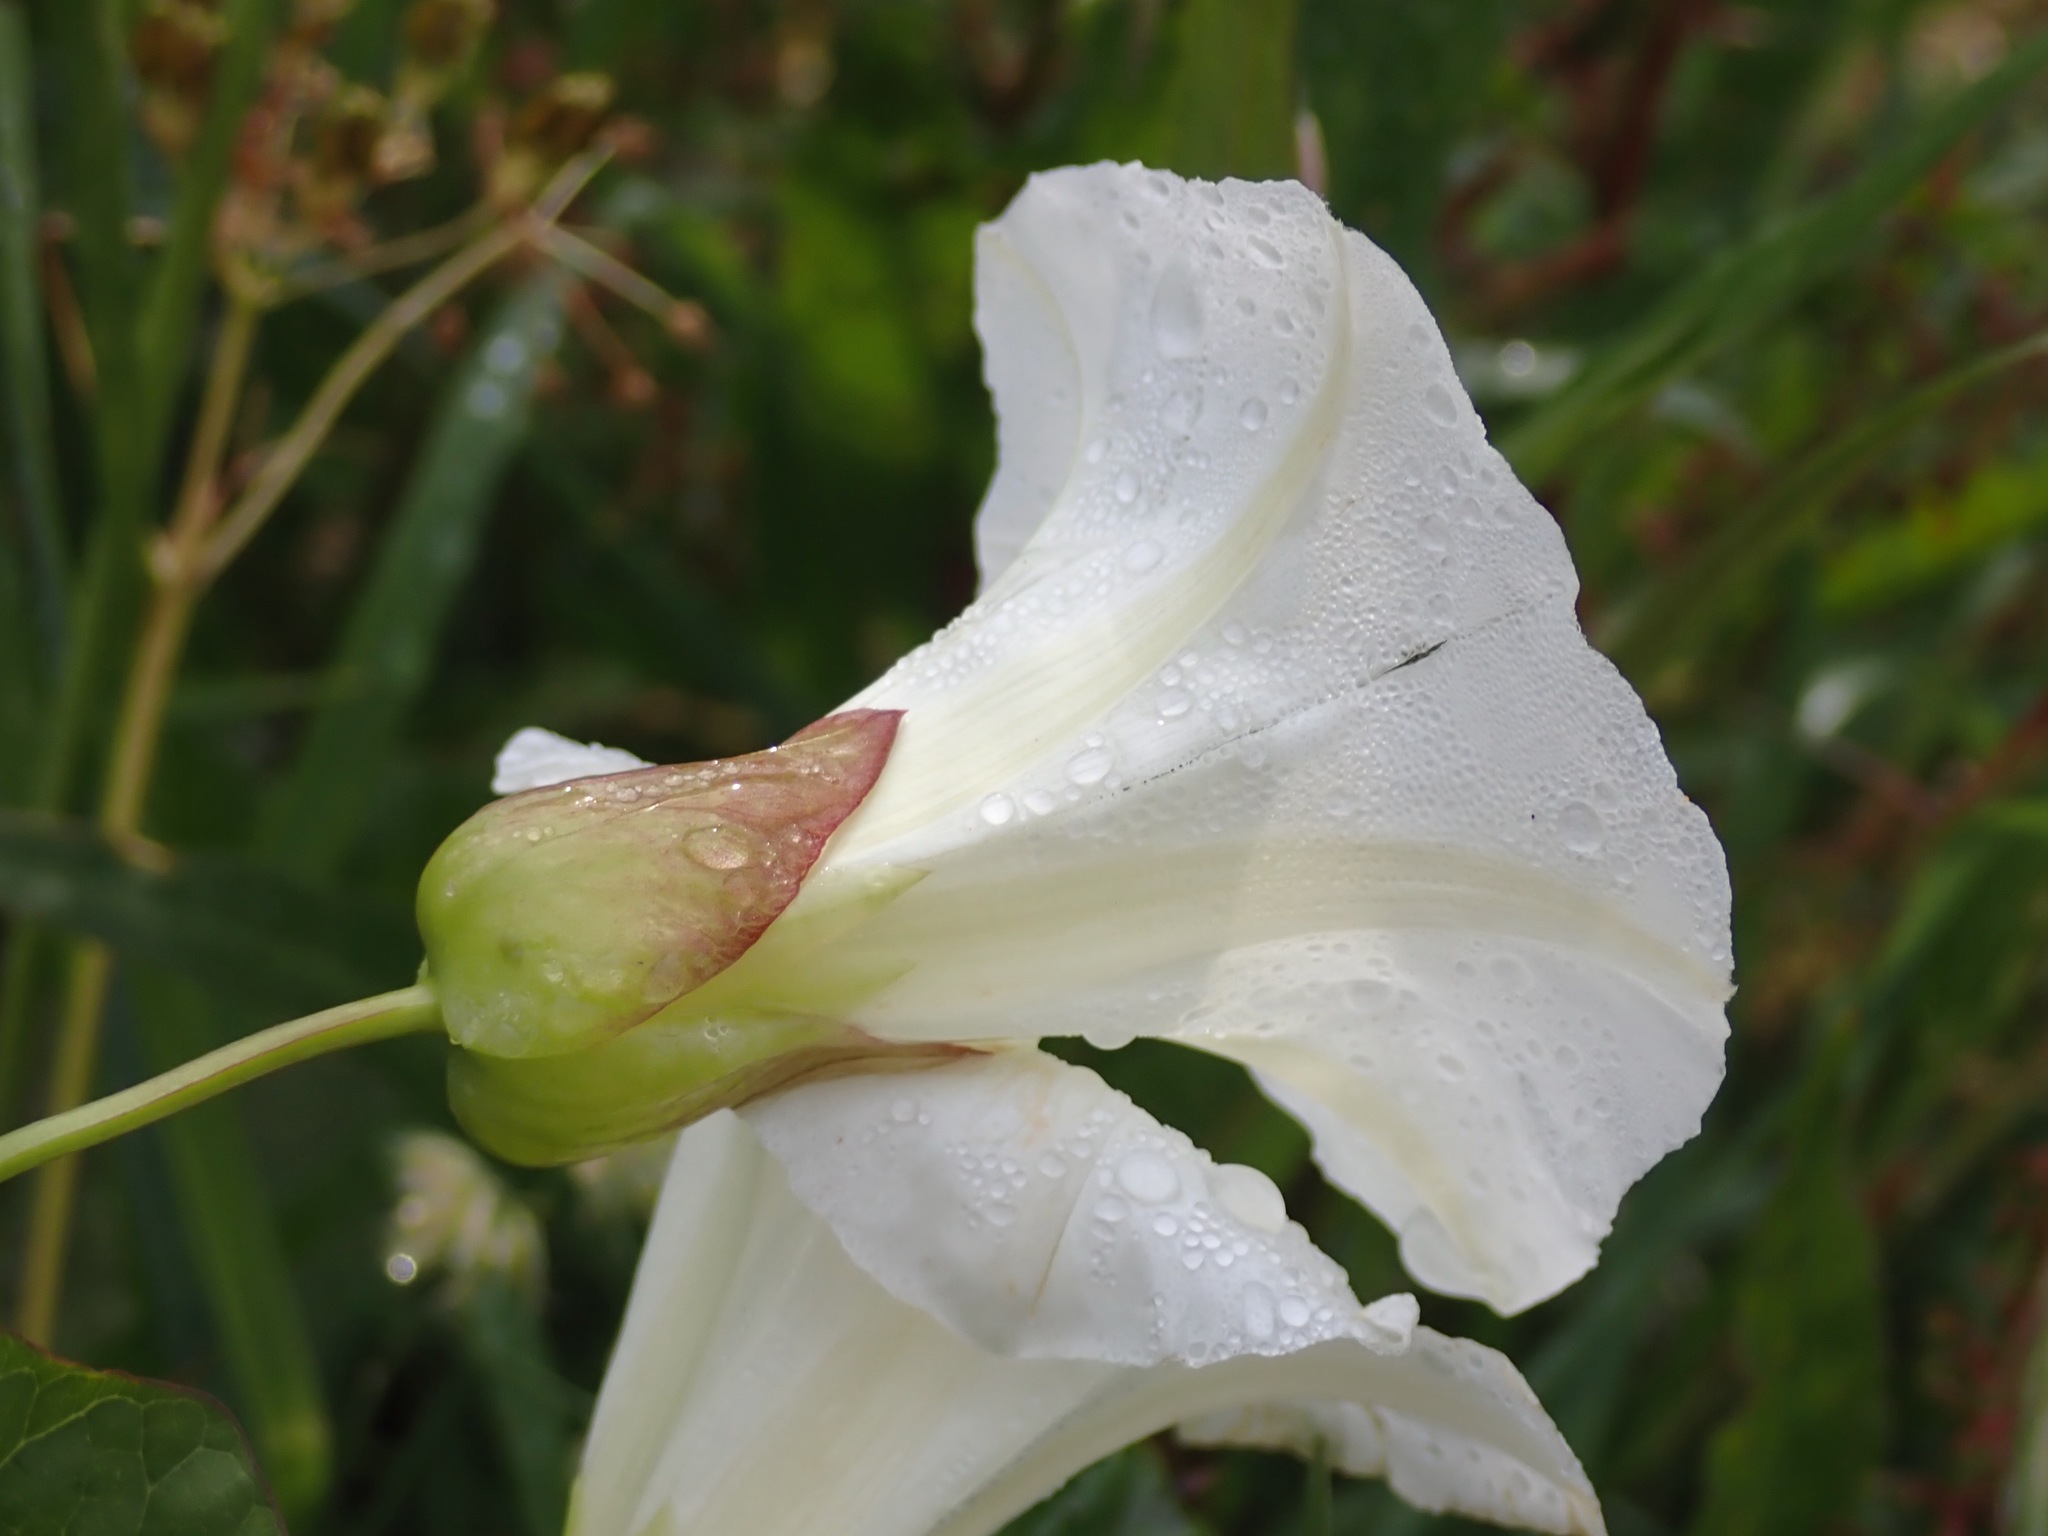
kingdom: Plantae
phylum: Tracheophyta
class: Magnoliopsida
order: Solanales
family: Convolvulaceae
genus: Calystegia
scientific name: Calystegia silvatica
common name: Large bindweed
